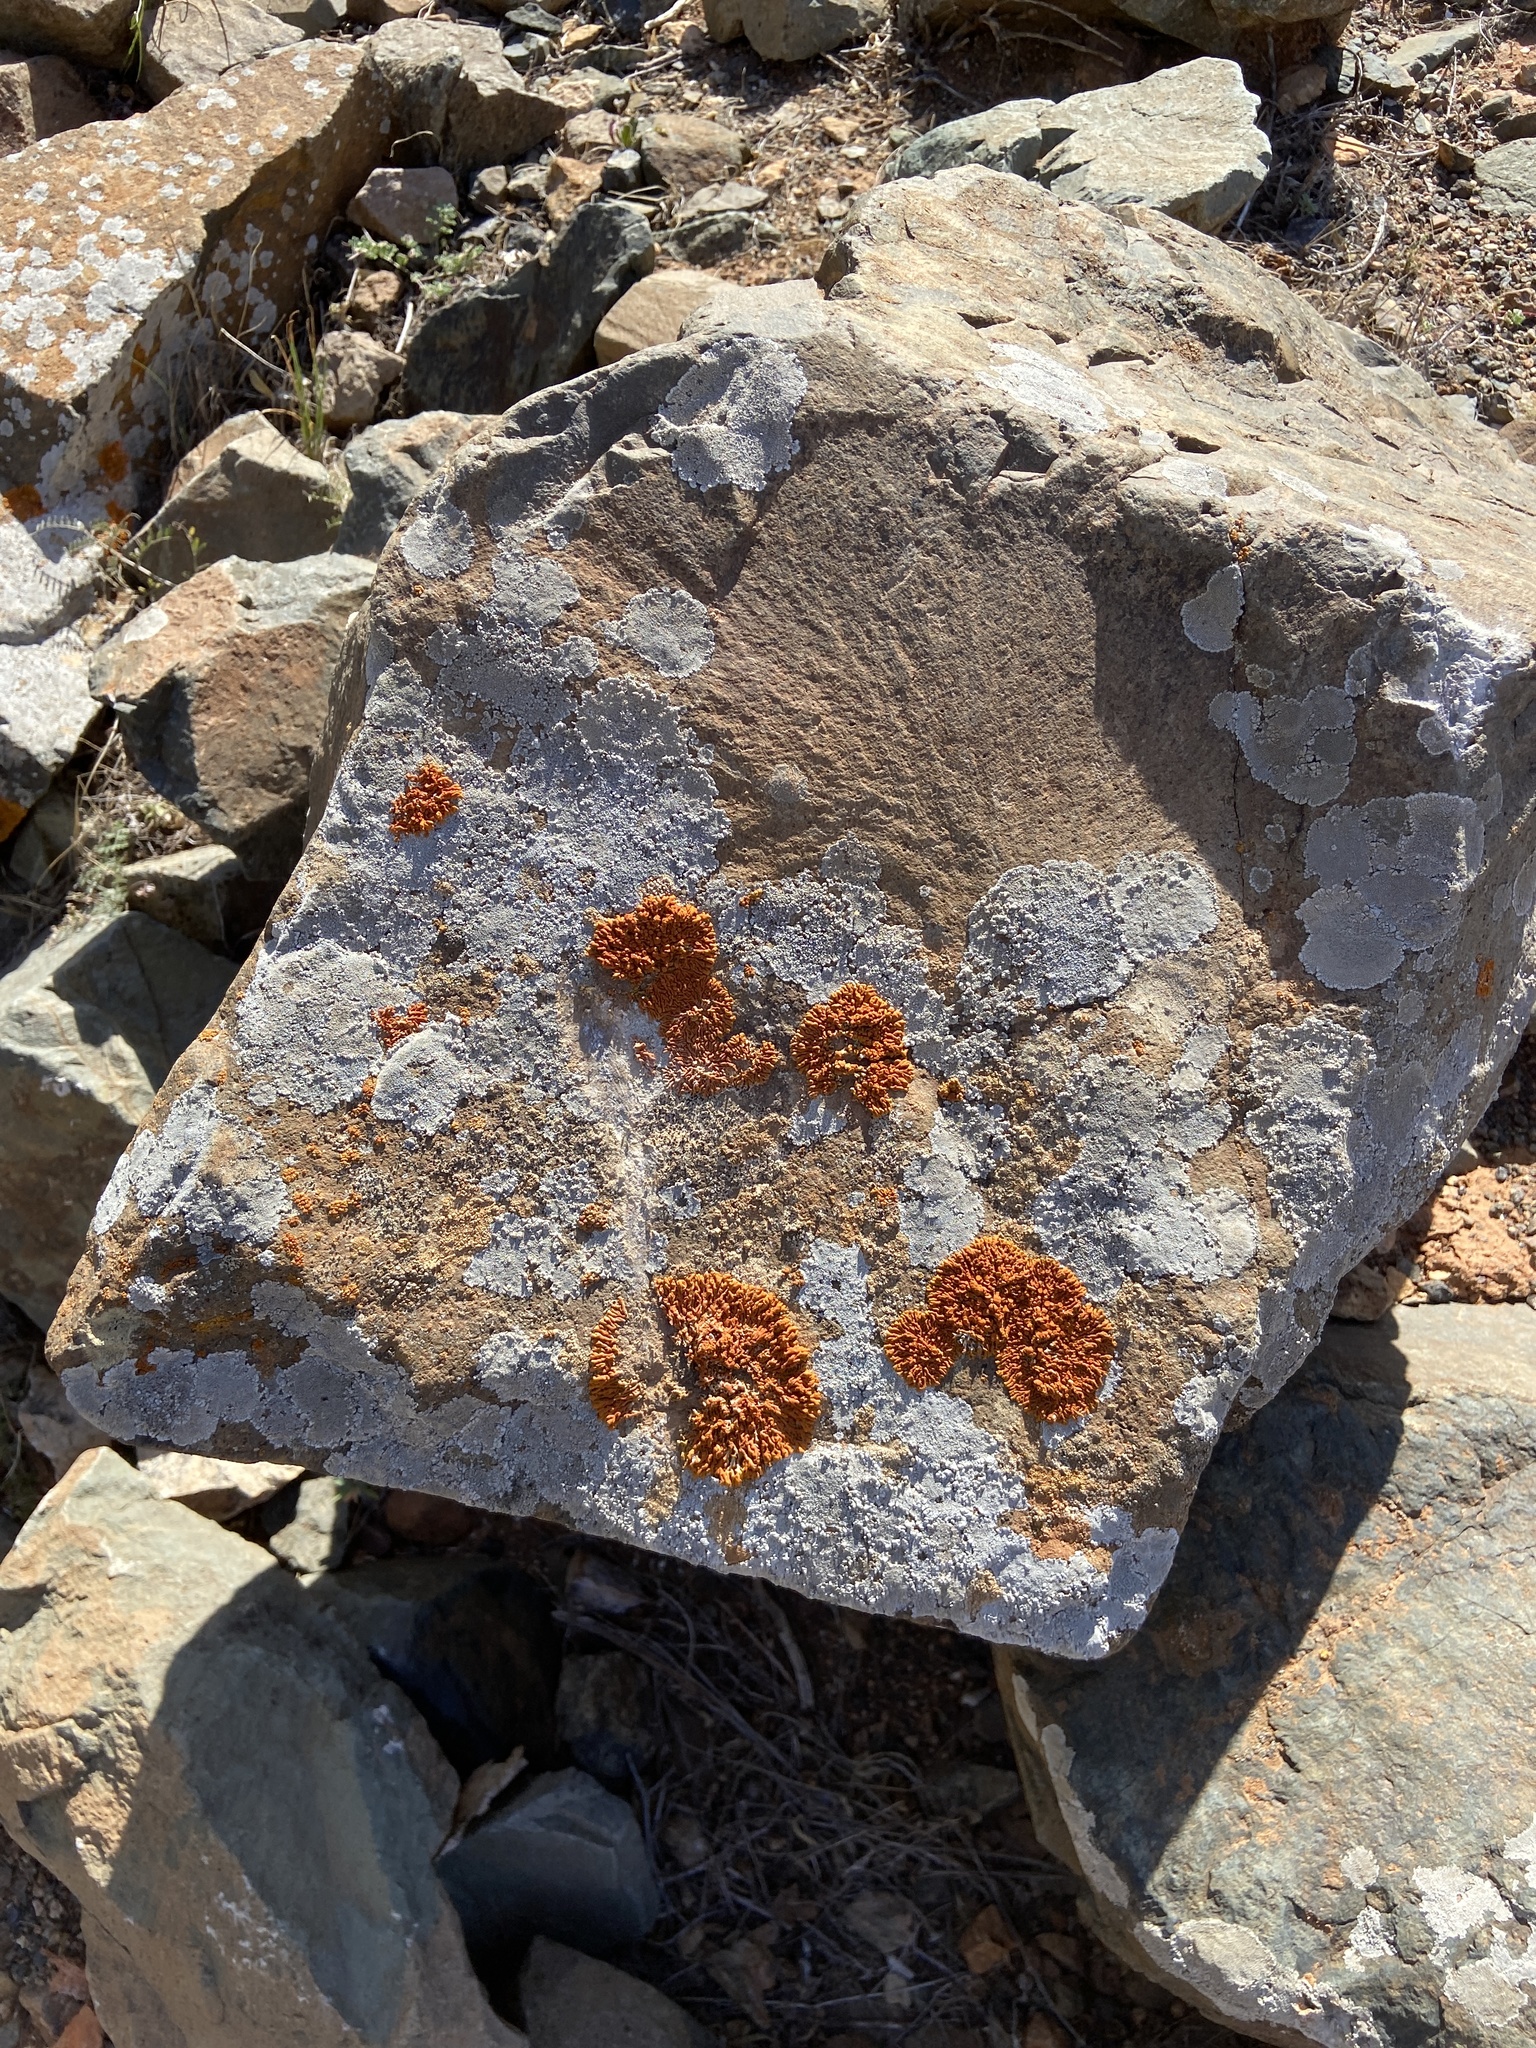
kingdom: Fungi
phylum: Ascomycota
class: Lecanoromycetes
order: Teloschistales
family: Teloschistaceae
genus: Xanthoria
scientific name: Xanthoria elegans
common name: Elegant sunburst lichen
